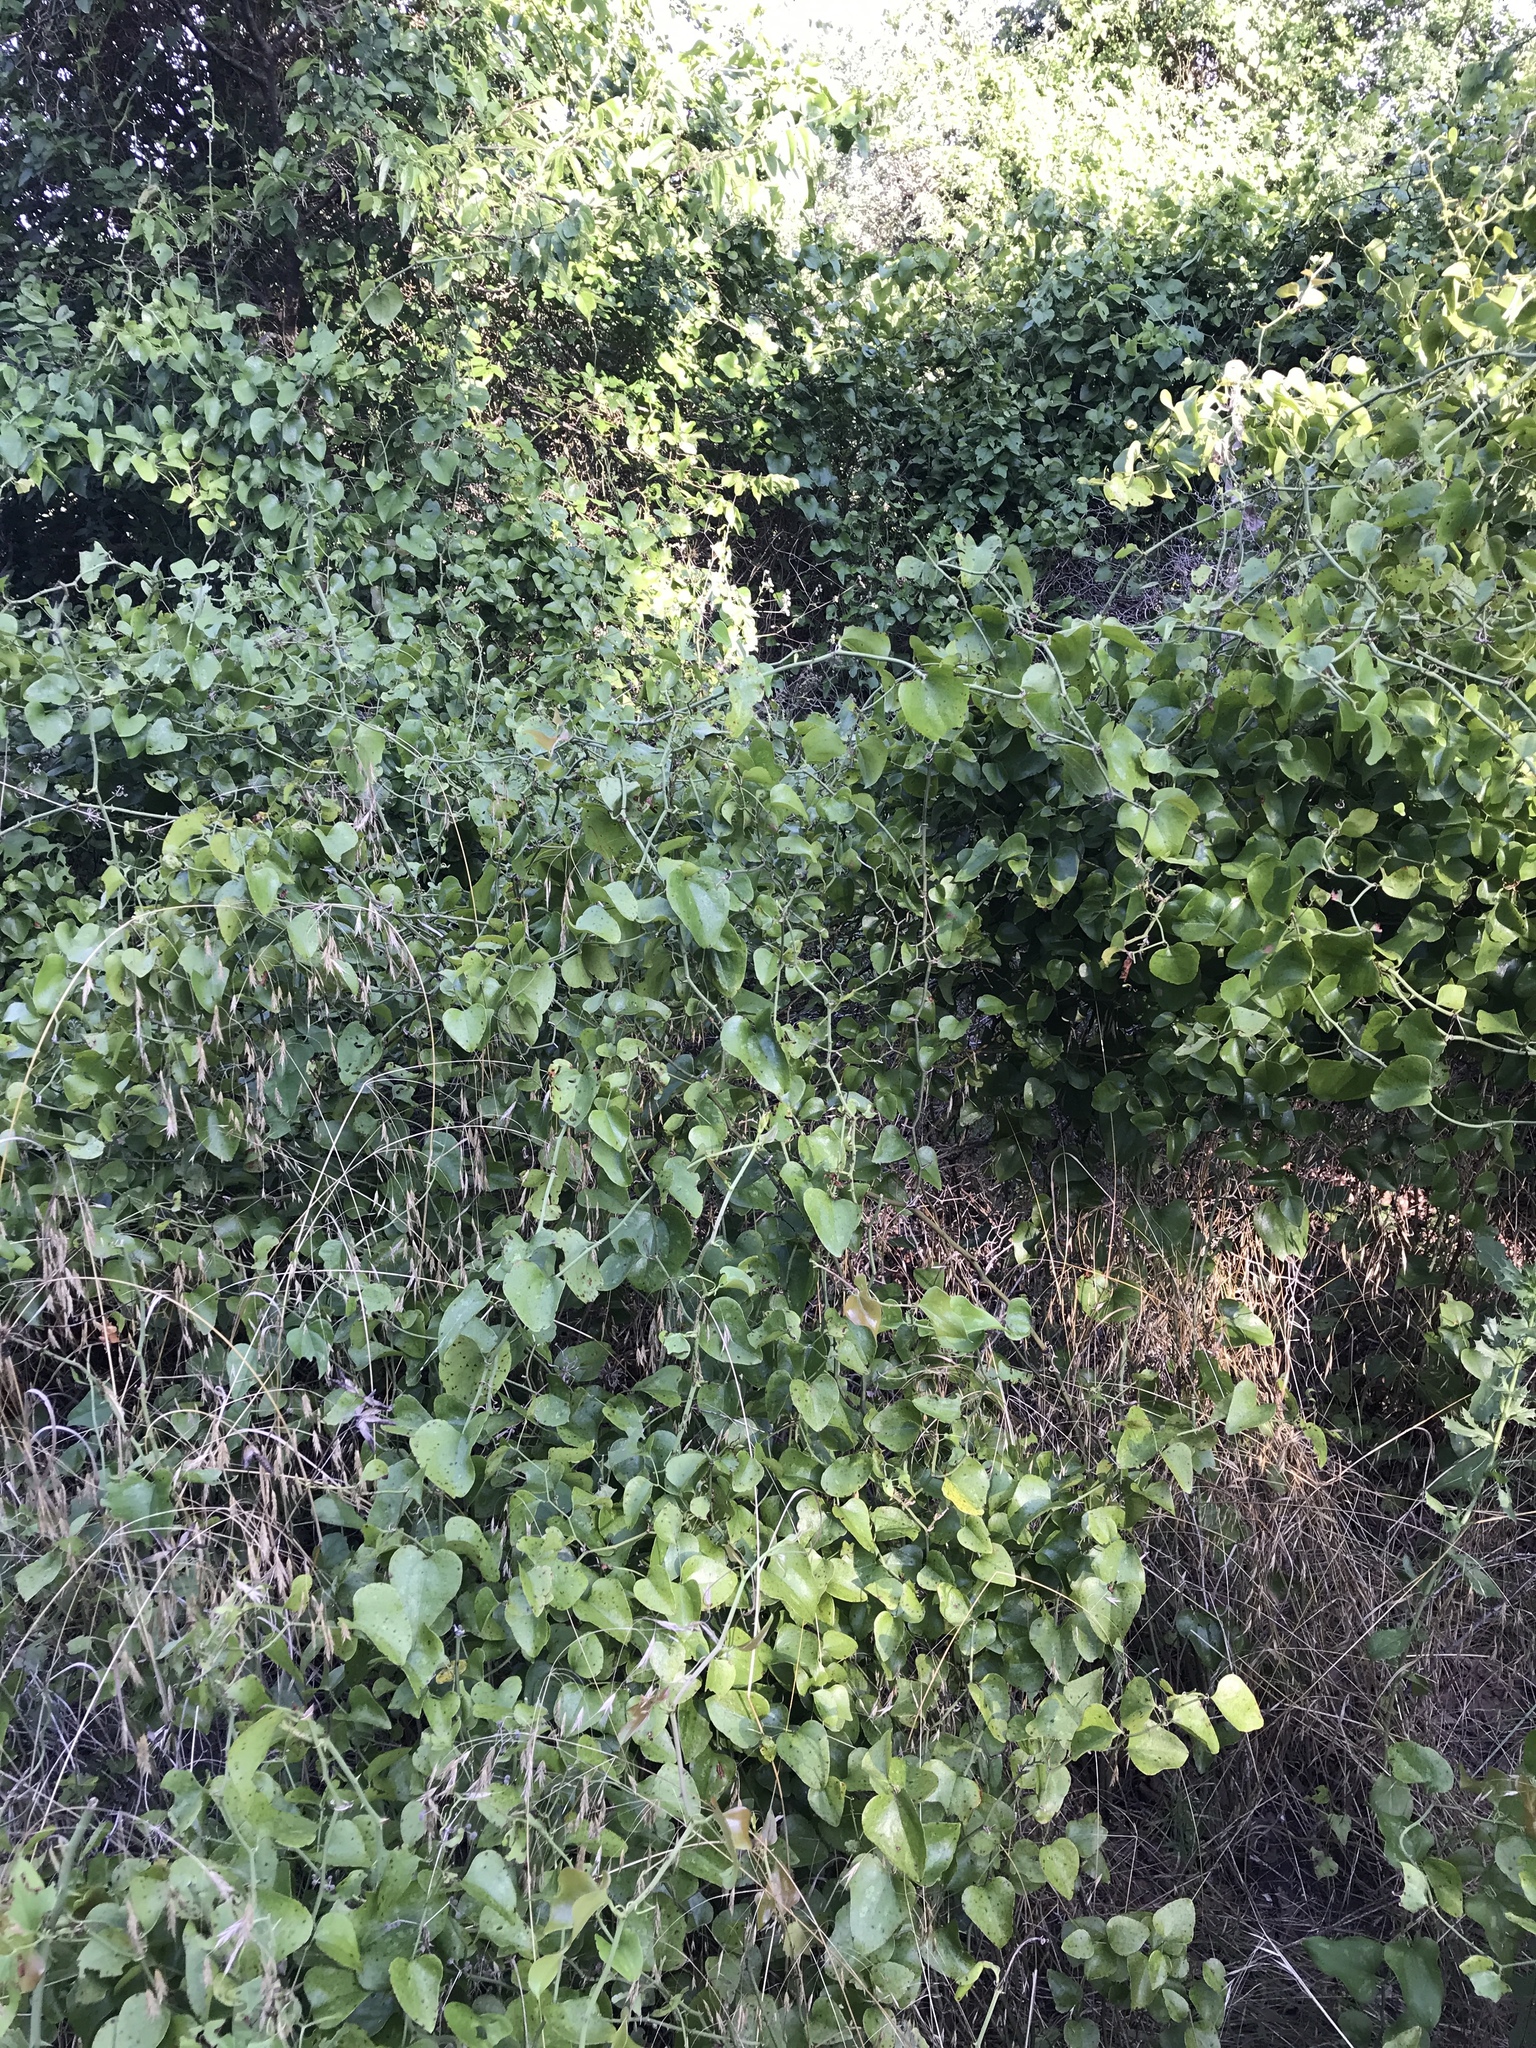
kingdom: Plantae
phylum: Tracheophyta
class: Liliopsida
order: Liliales
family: Smilacaceae
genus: Smilax
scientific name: Smilax bona-nox
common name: Catbrier
